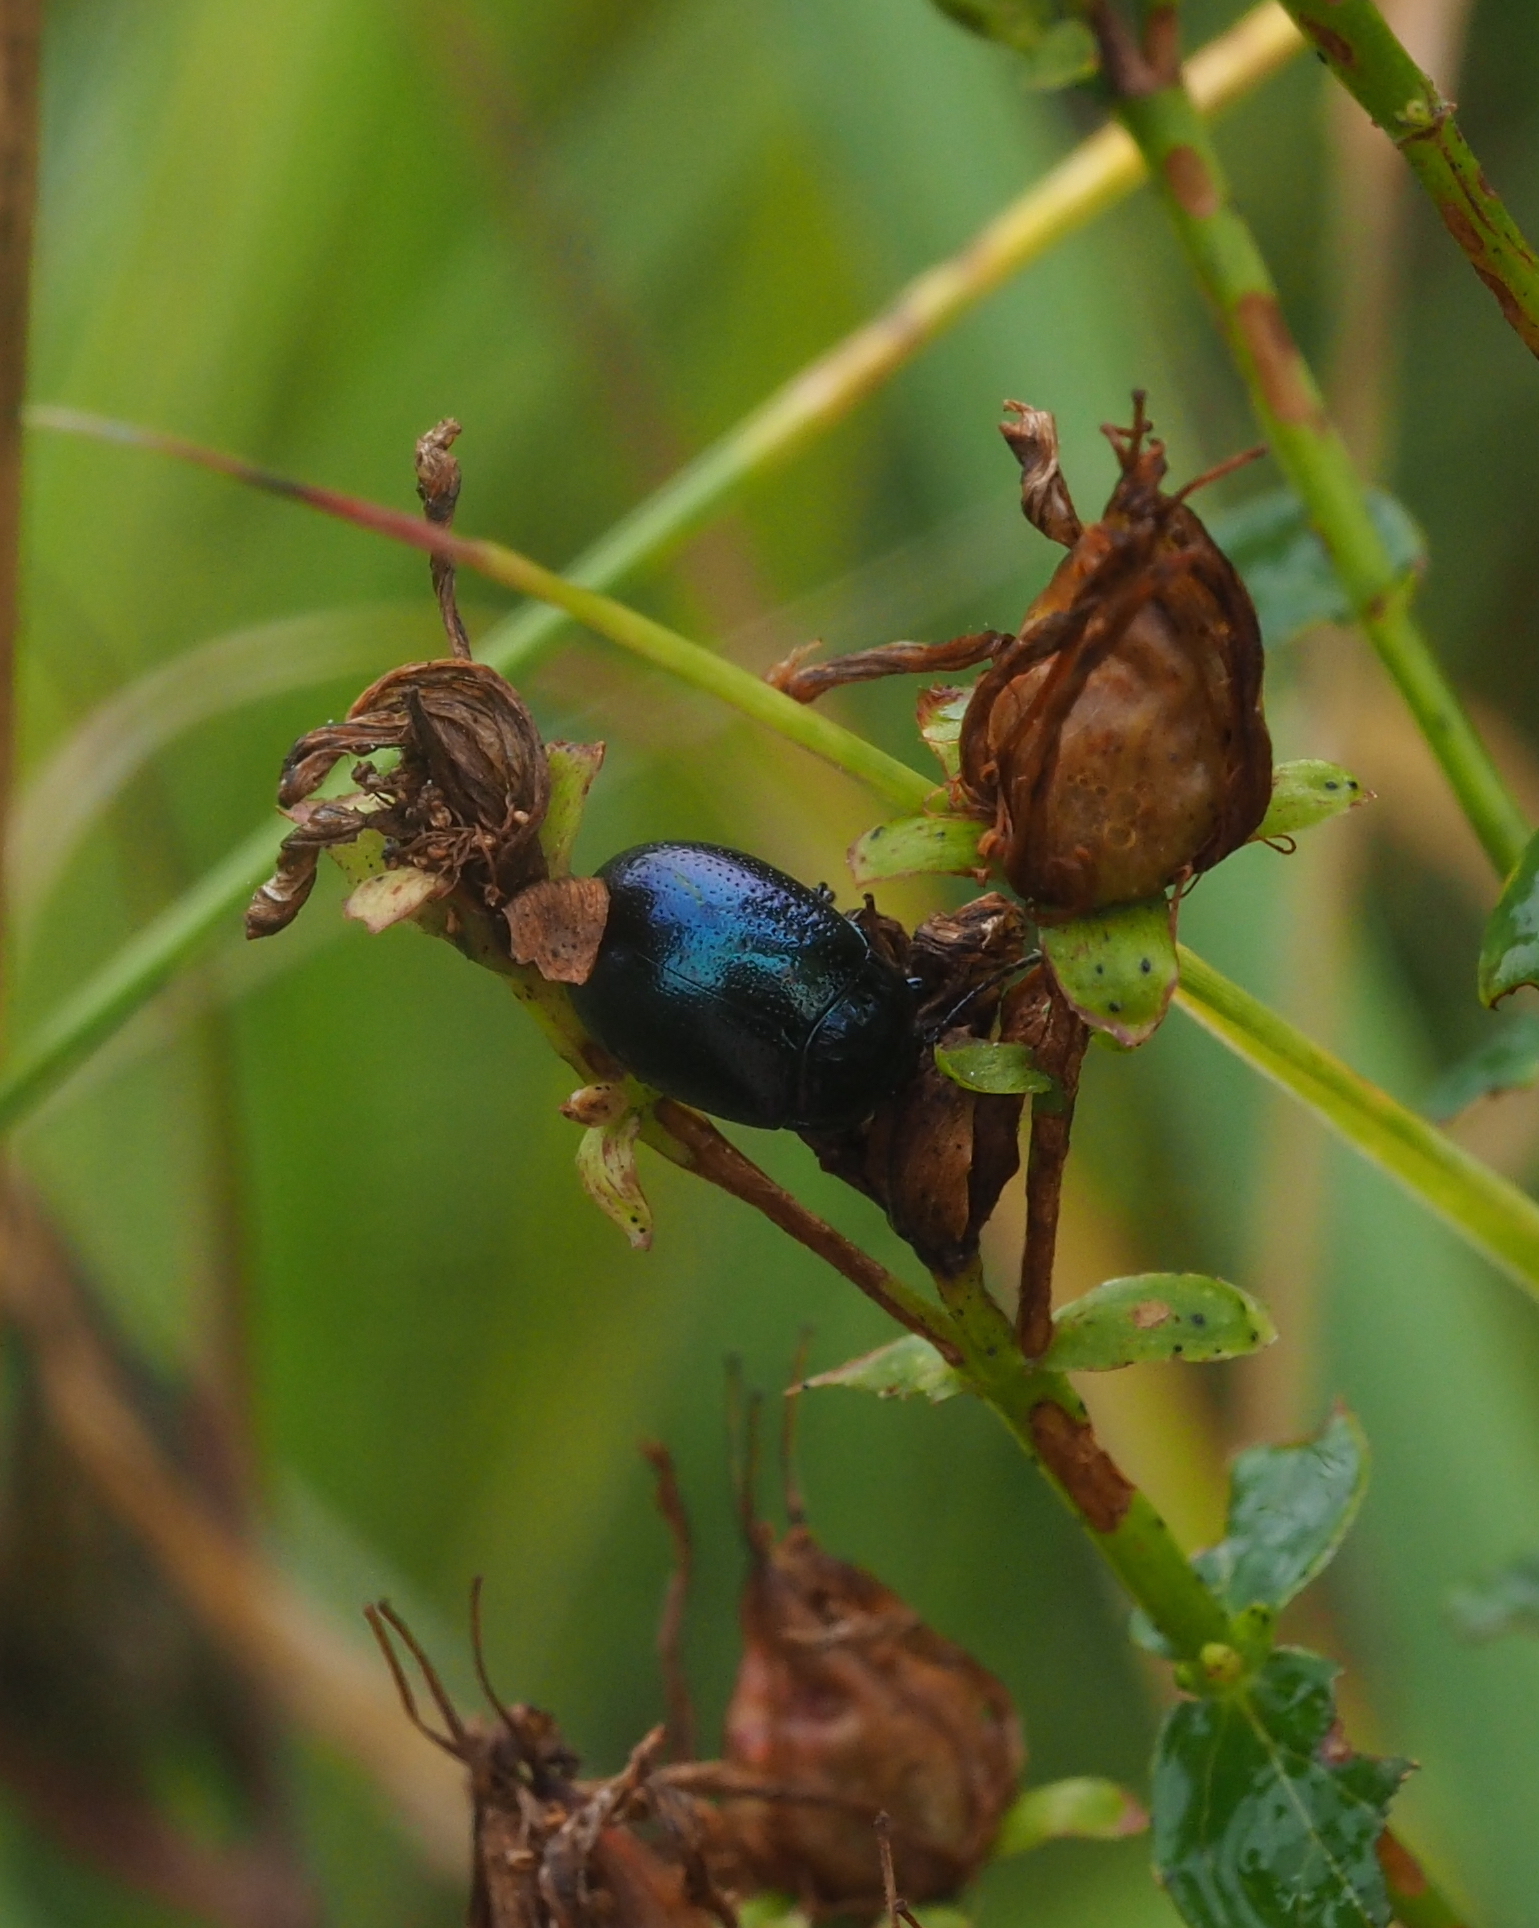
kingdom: Animalia
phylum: Arthropoda
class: Insecta
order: Coleoptera
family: Chrysomelidae
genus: Chrysolina
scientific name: Chrysolina geminata
